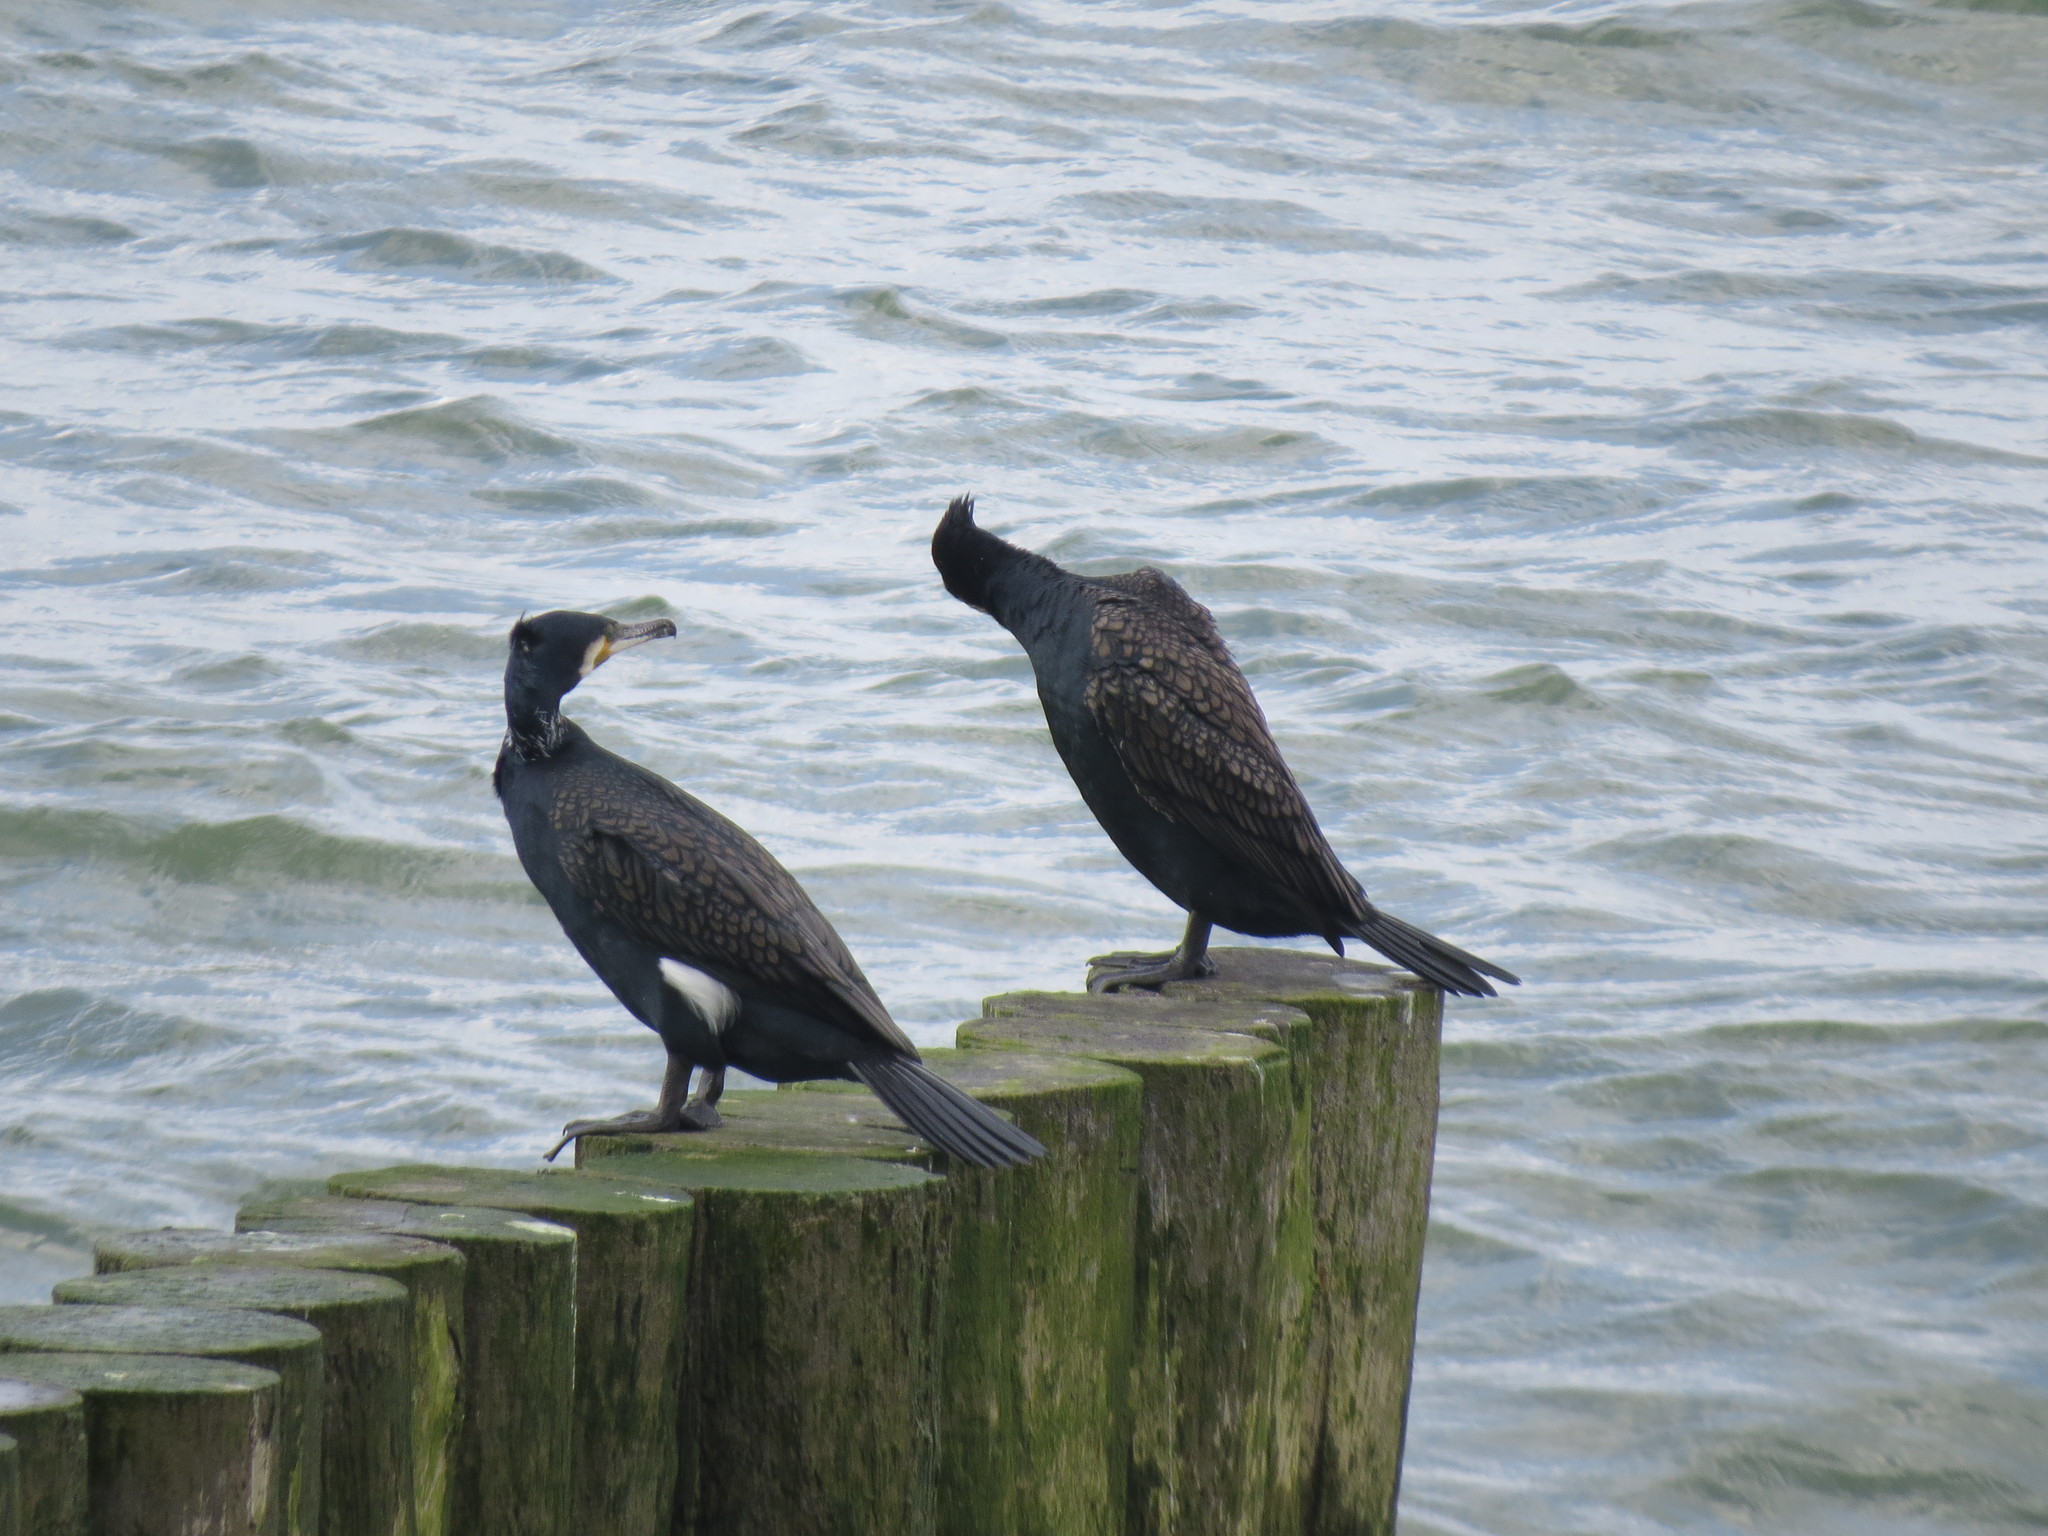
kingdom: Animalia
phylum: Chordata
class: Aves
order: Suliformes
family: Phalacrocoracidae
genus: Phalacrocorax
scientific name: Phalacrocorax carbo
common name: Great cormorant
